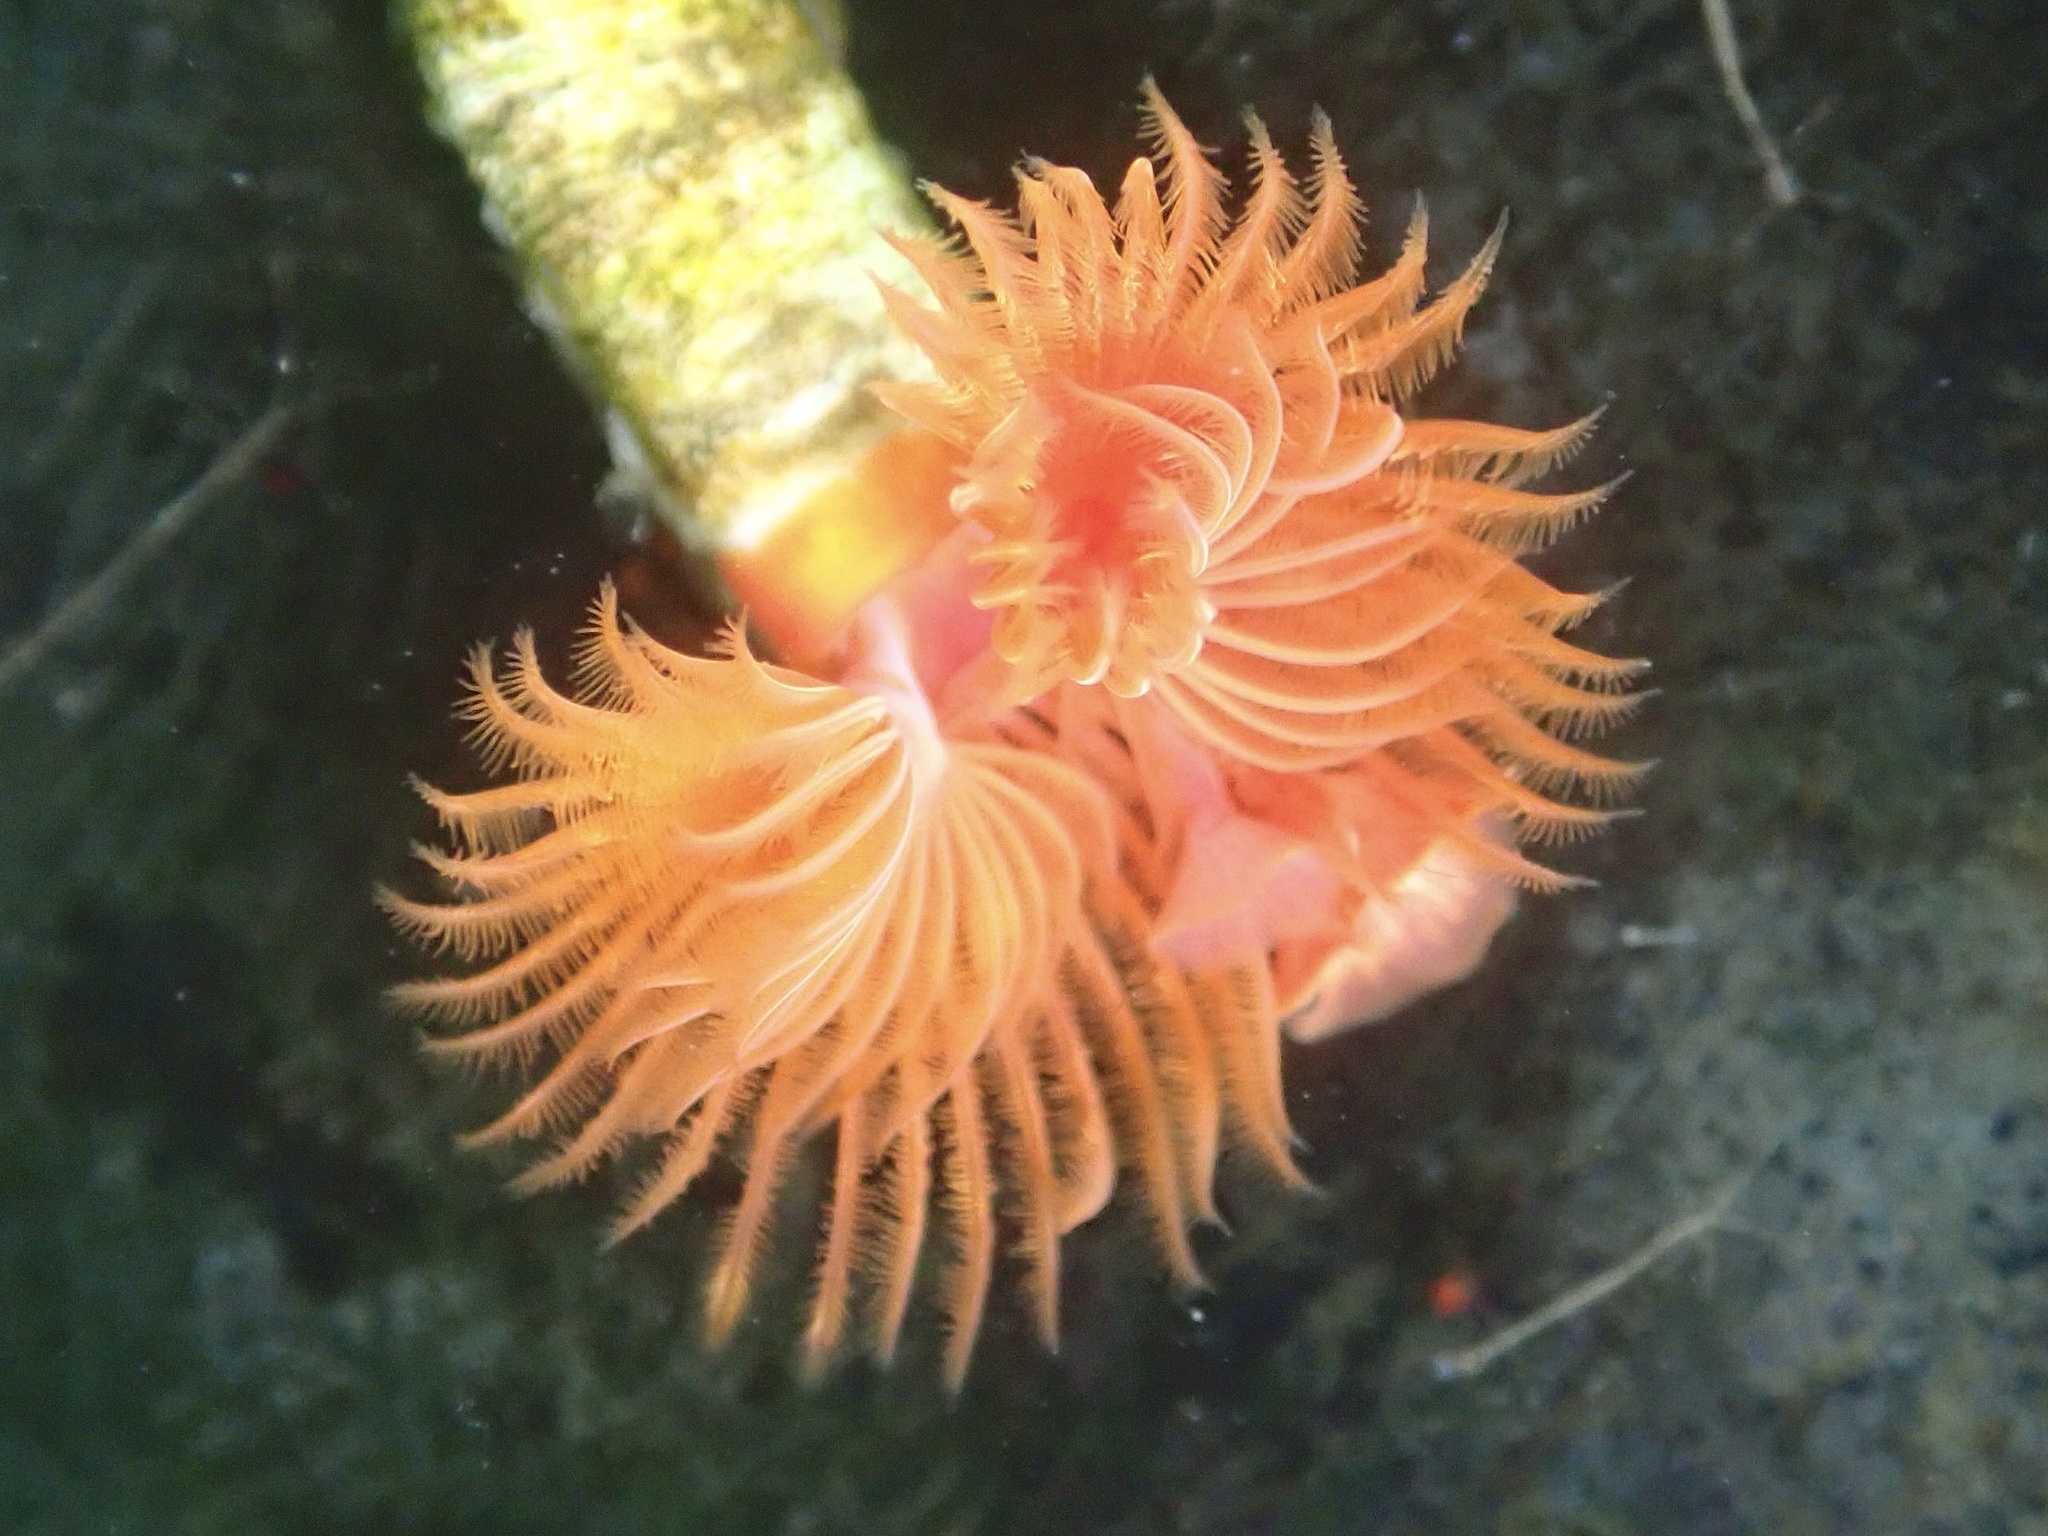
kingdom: Animalia
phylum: Annelida
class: Polychaeta
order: Sabellida
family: Serpulidae
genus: Serpula
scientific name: Serpula columbiana
